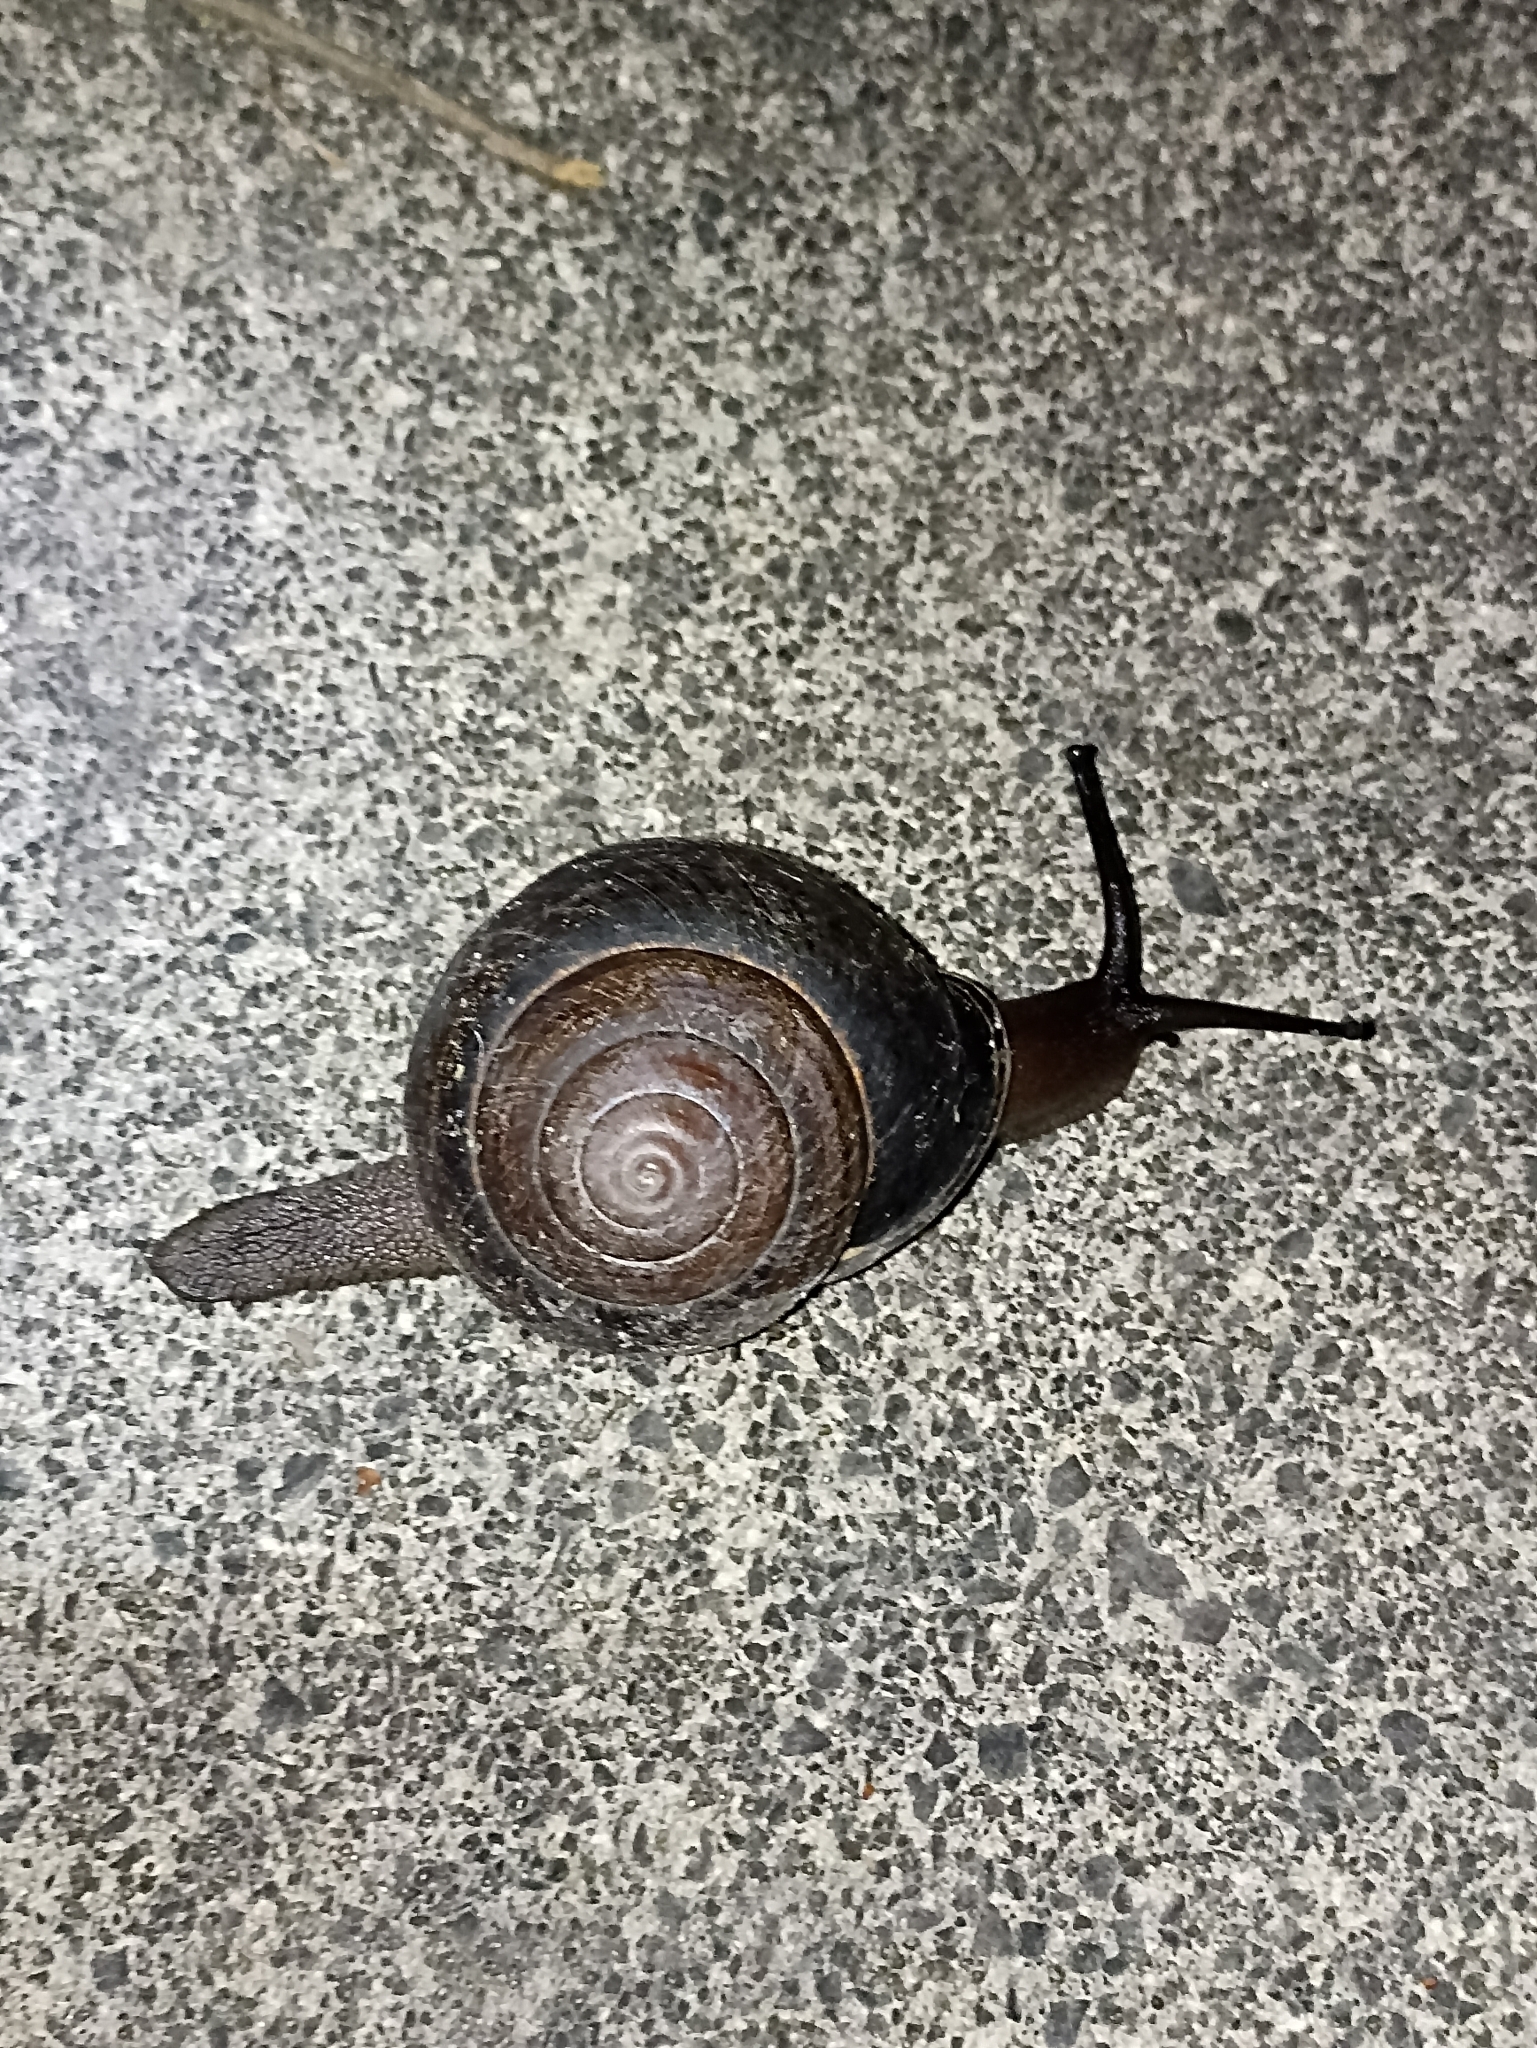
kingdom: Animalia
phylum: Mollusca
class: Gastropoda
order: Stylommatophora
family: Camaenidae
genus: Sphaerospira
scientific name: Sphaerospira fraseri
